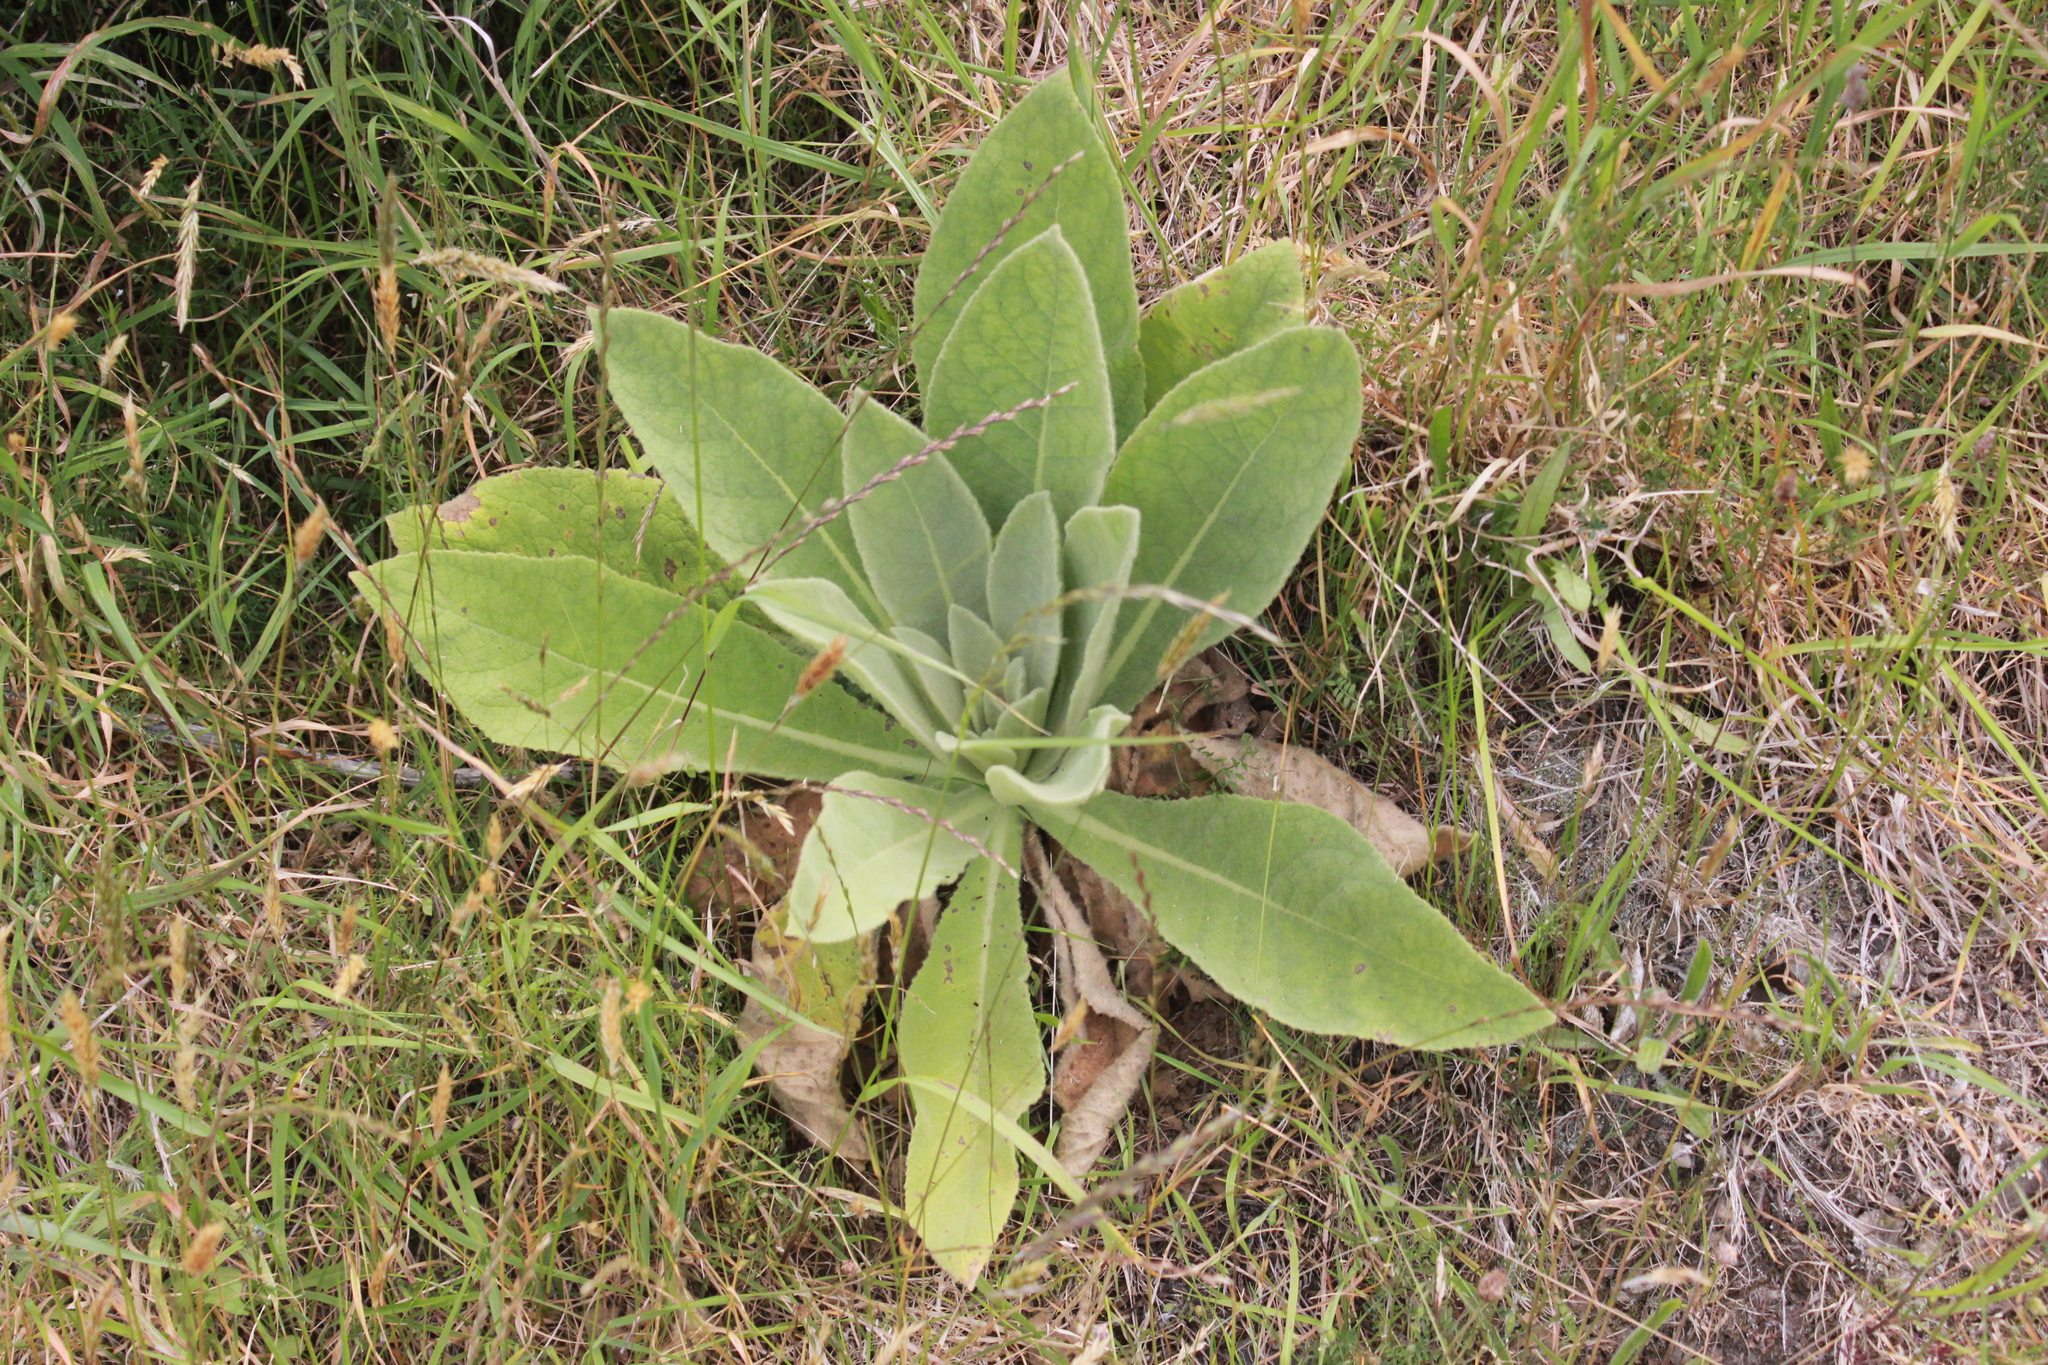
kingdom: Plantae
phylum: Tracheophyta
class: Magnoliopsida
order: Lamiales
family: Scrophulariaceae
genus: Verbascum
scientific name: Verbascum thapsus
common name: Common mullein
